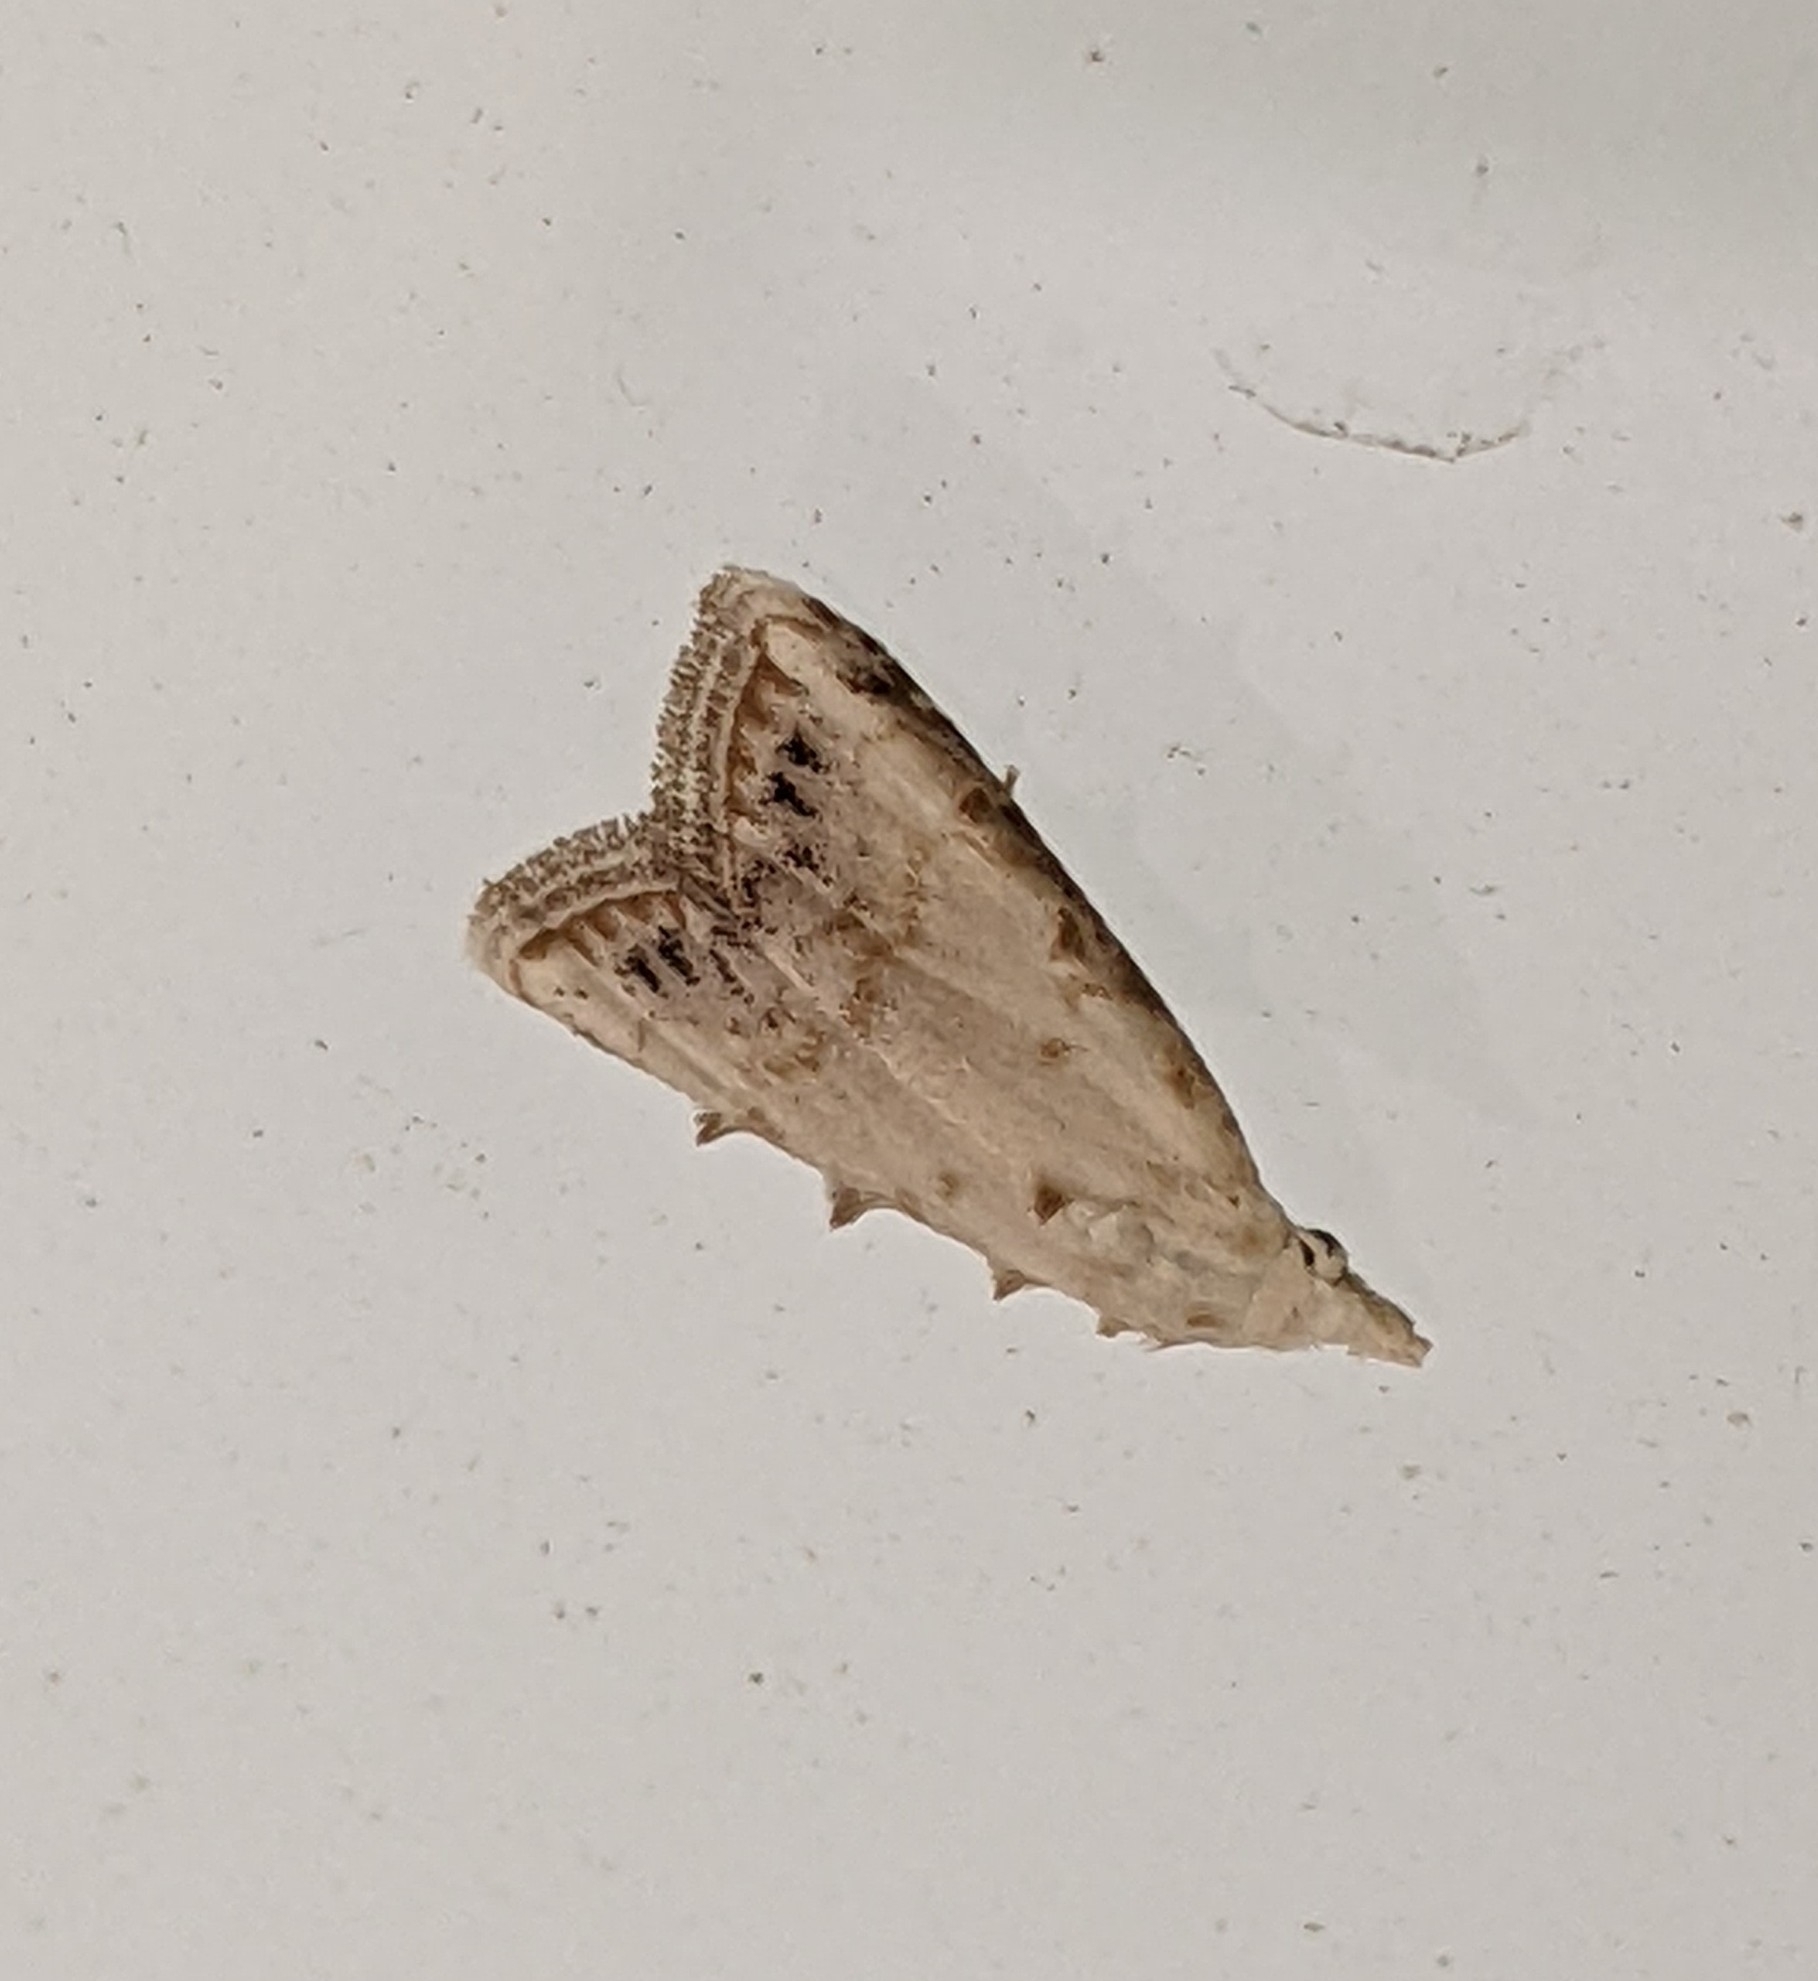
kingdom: Animalia
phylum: Arthropoda
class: Insecta
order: Lepidoptera
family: Nolidae
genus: Nola
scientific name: Nola cereella
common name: Sorghum webworm moth
